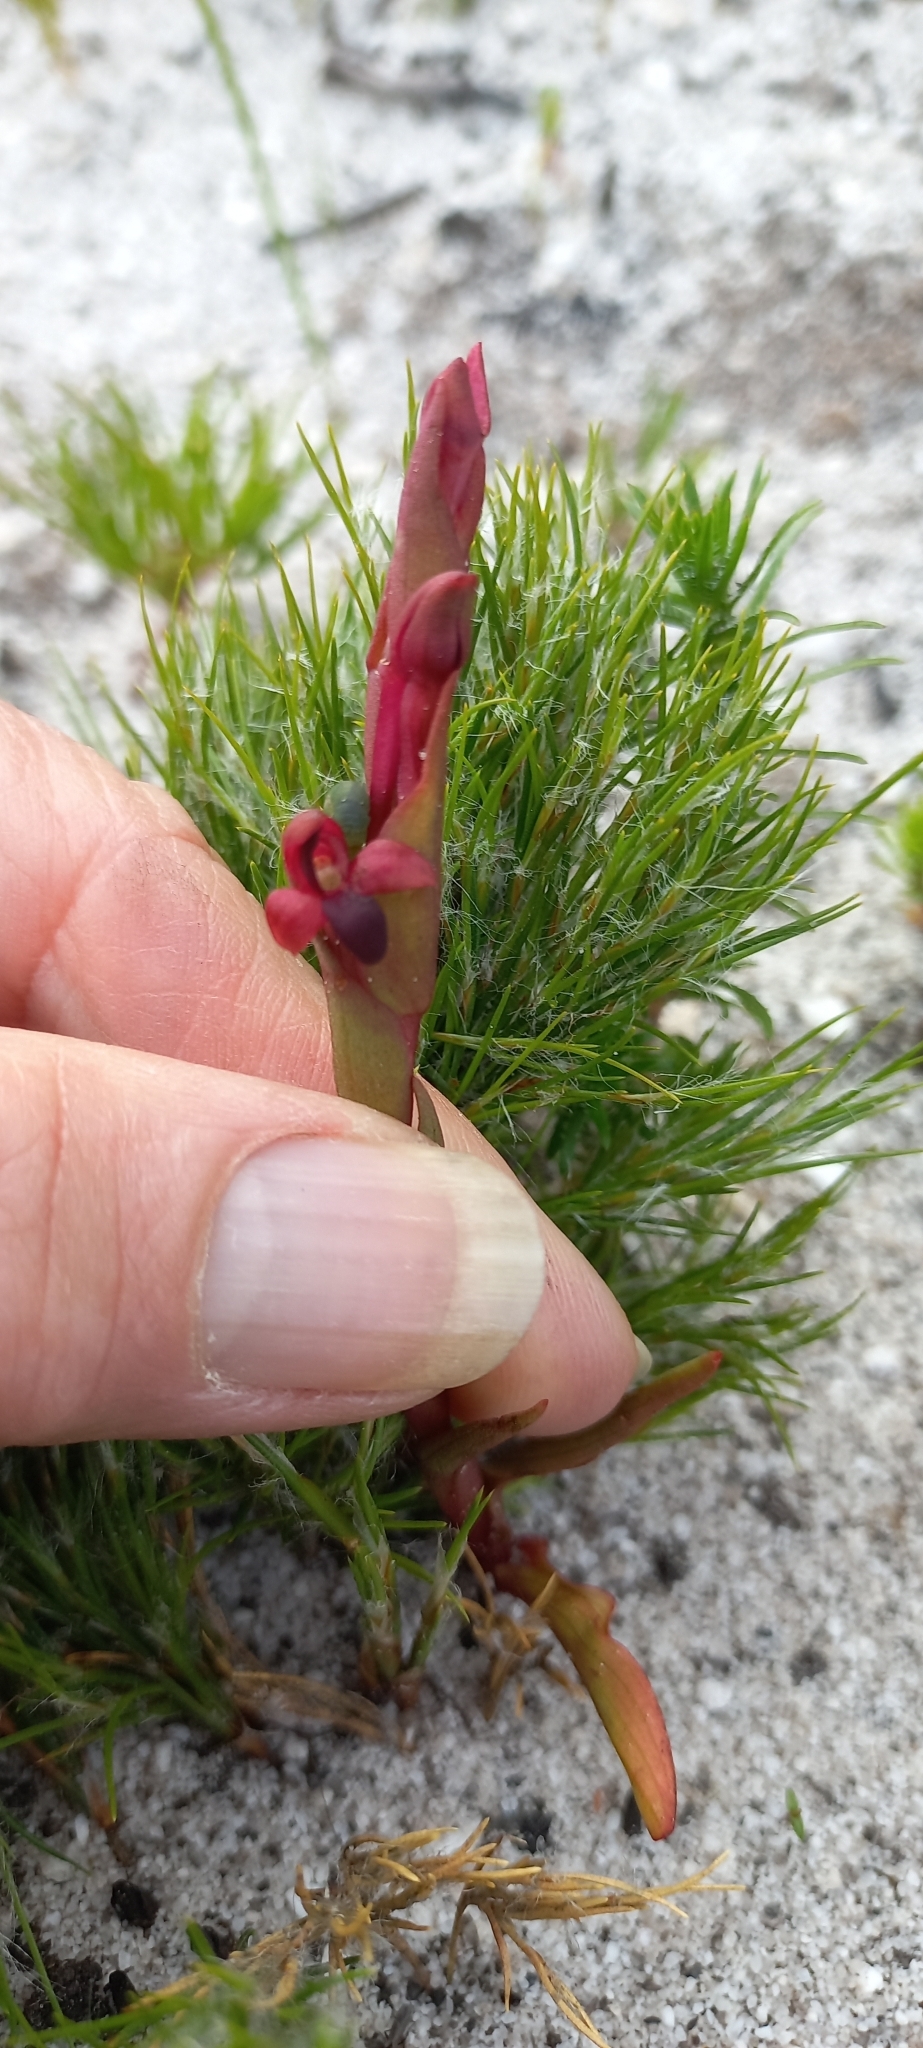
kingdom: Plantae
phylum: Tracheophyta
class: Liliopsida
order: Asparagales
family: Orchidaceae
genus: Disa
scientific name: Disa atrorubens
